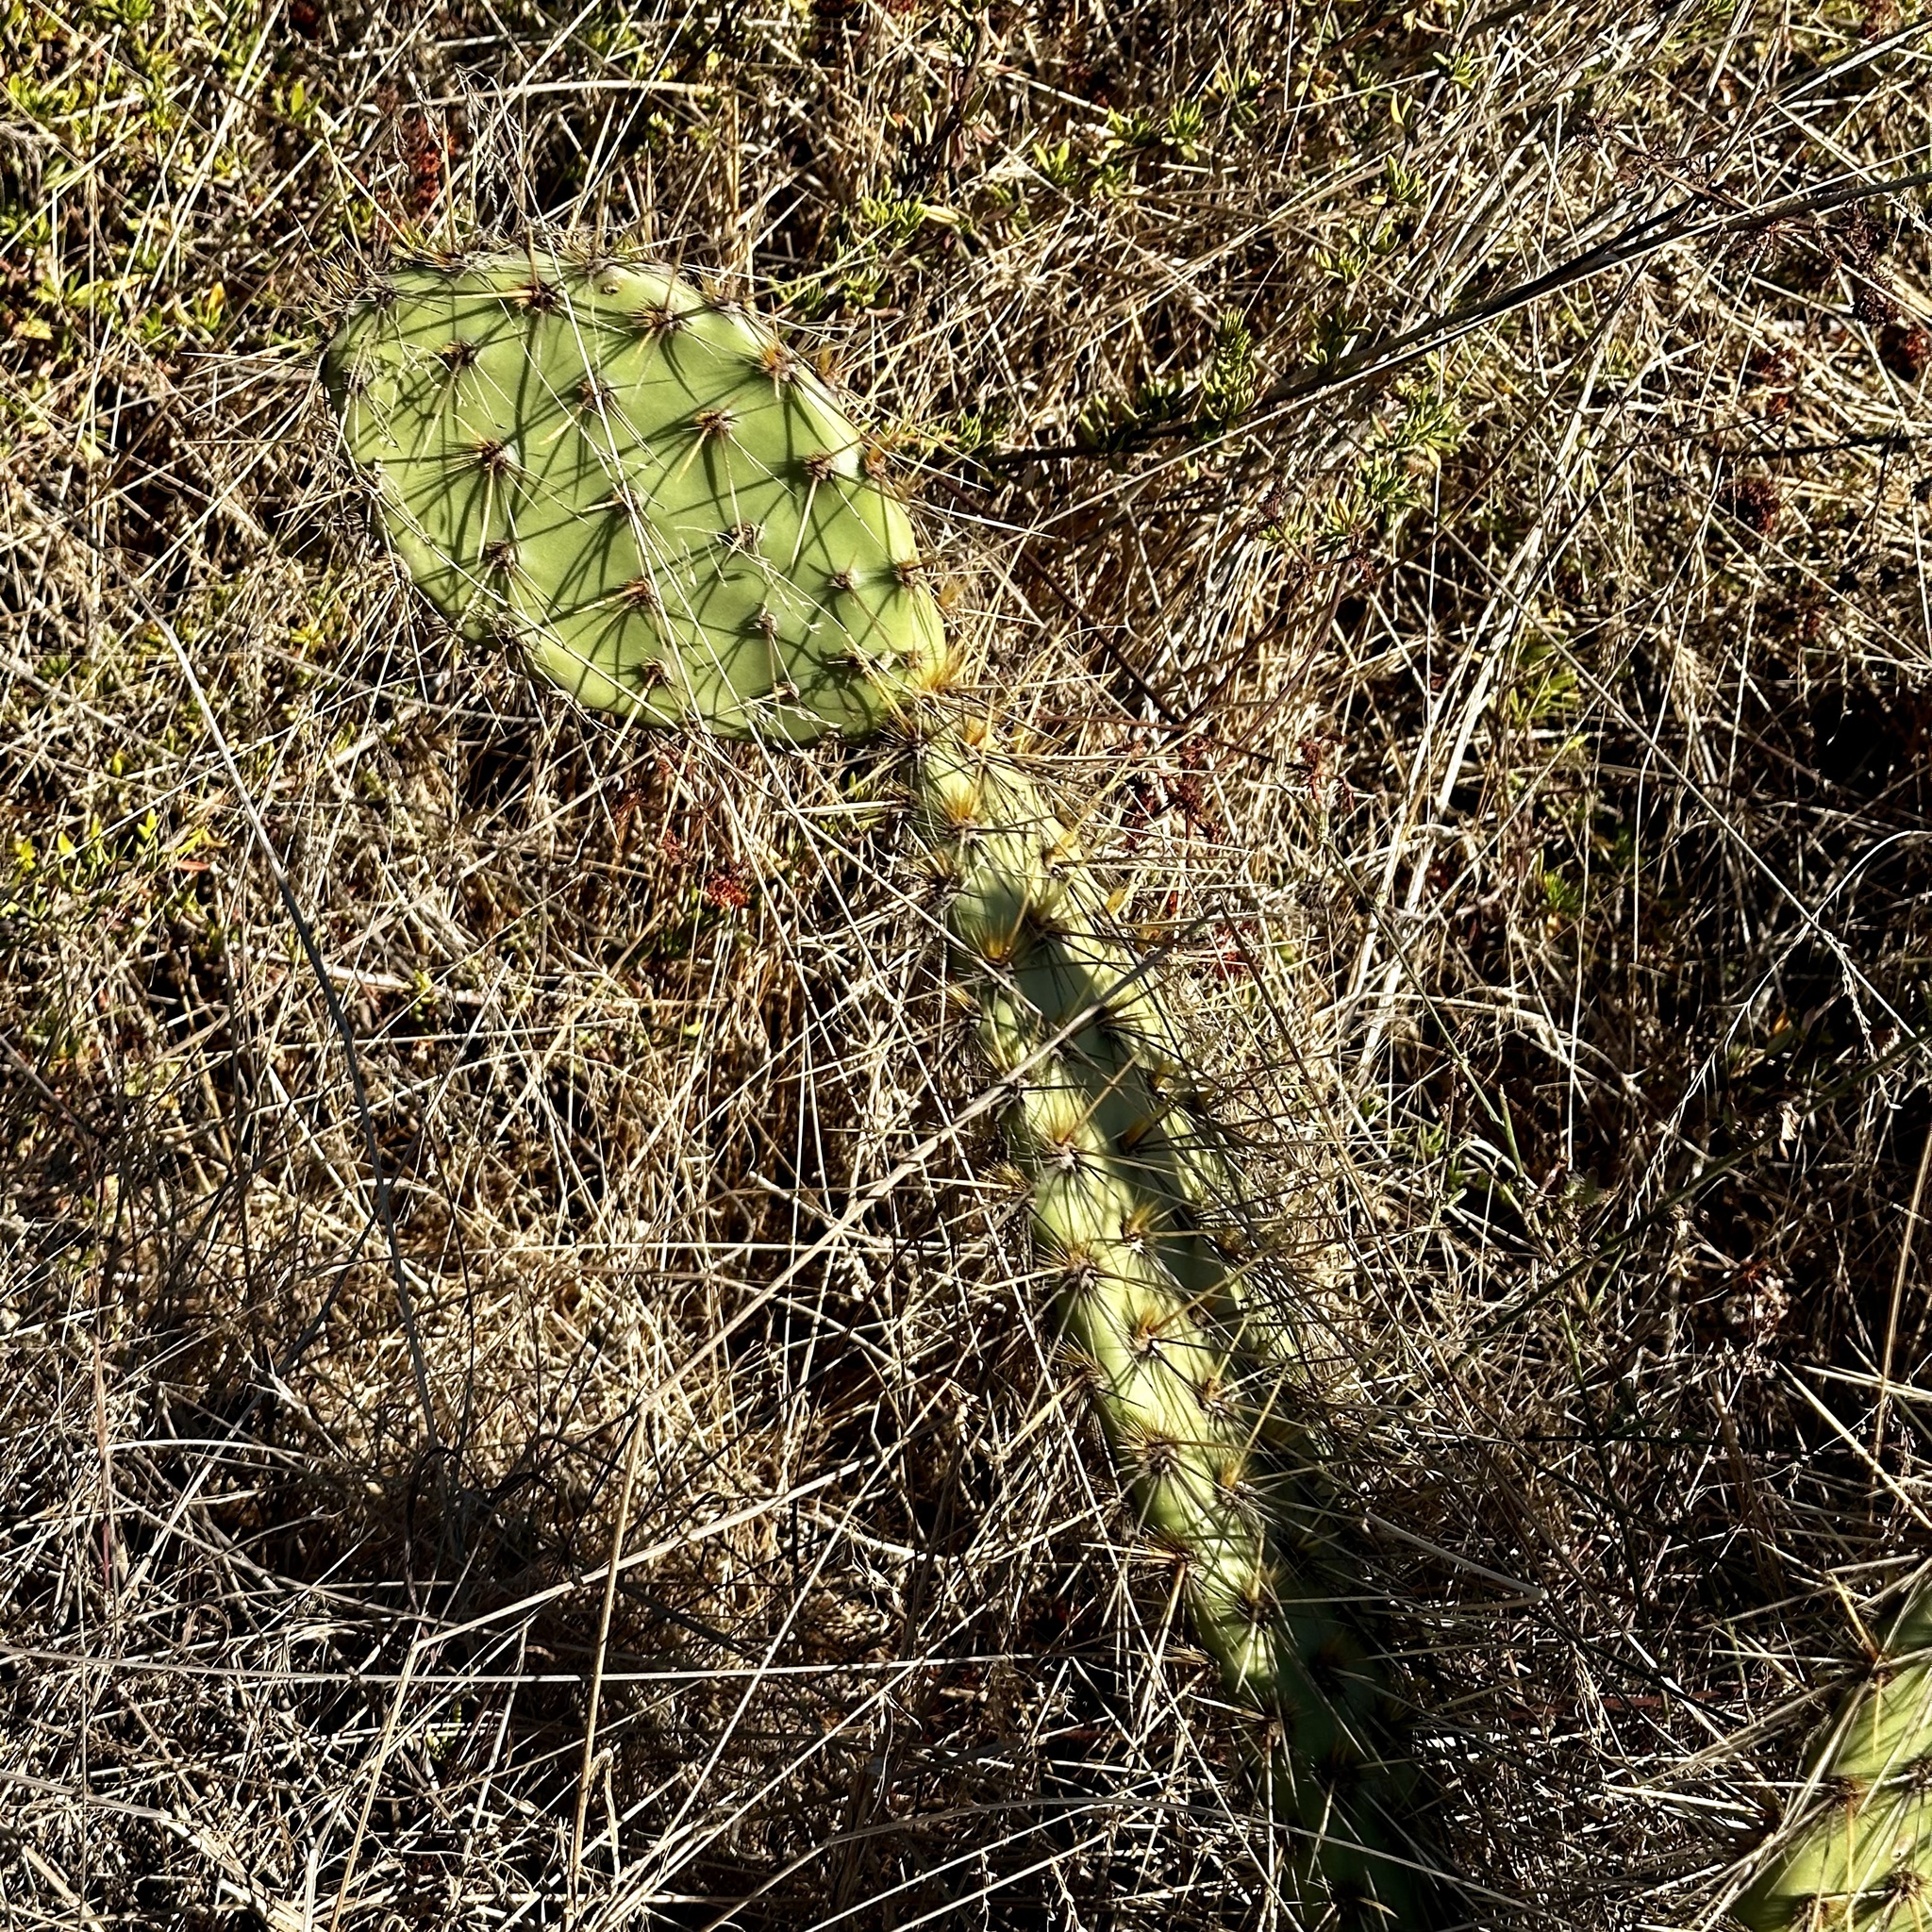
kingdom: Plantae
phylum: Tracheophyta
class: Magnoliopsida
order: Caryophyllales
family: Cactaceae
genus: Opuntia
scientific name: Opuntia littoralis
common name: Coastal prickly-pear
